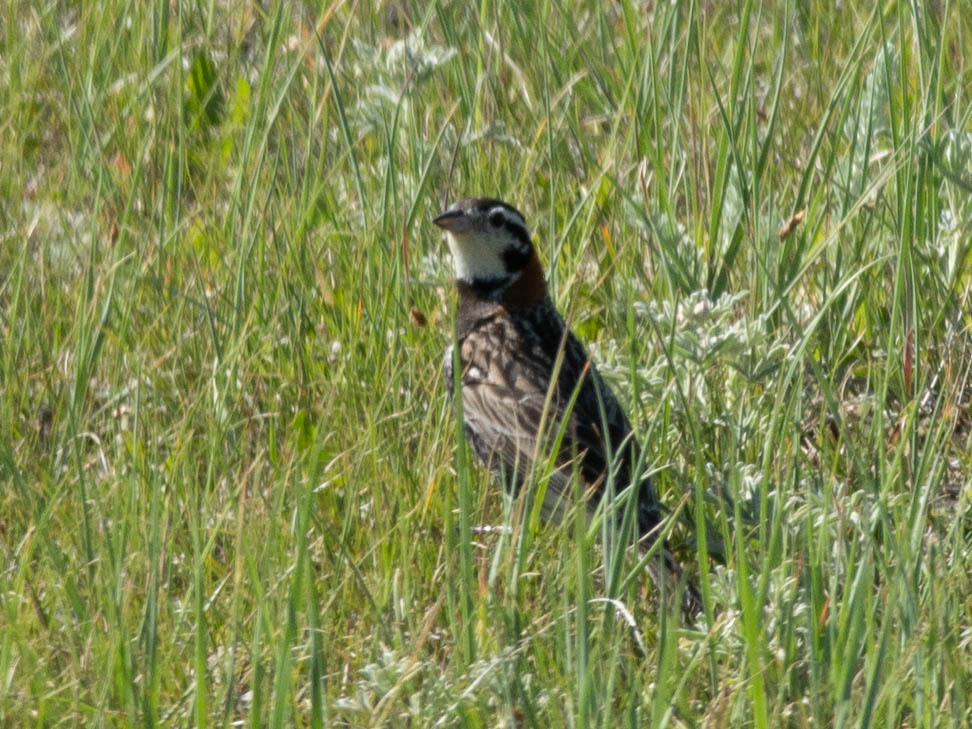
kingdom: Animalia
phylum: Chordata
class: Aves
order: Passeriformes
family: Calcariidae
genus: Calcarius
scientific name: Calcarius ornatus
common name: Chestnut-collared longspur
